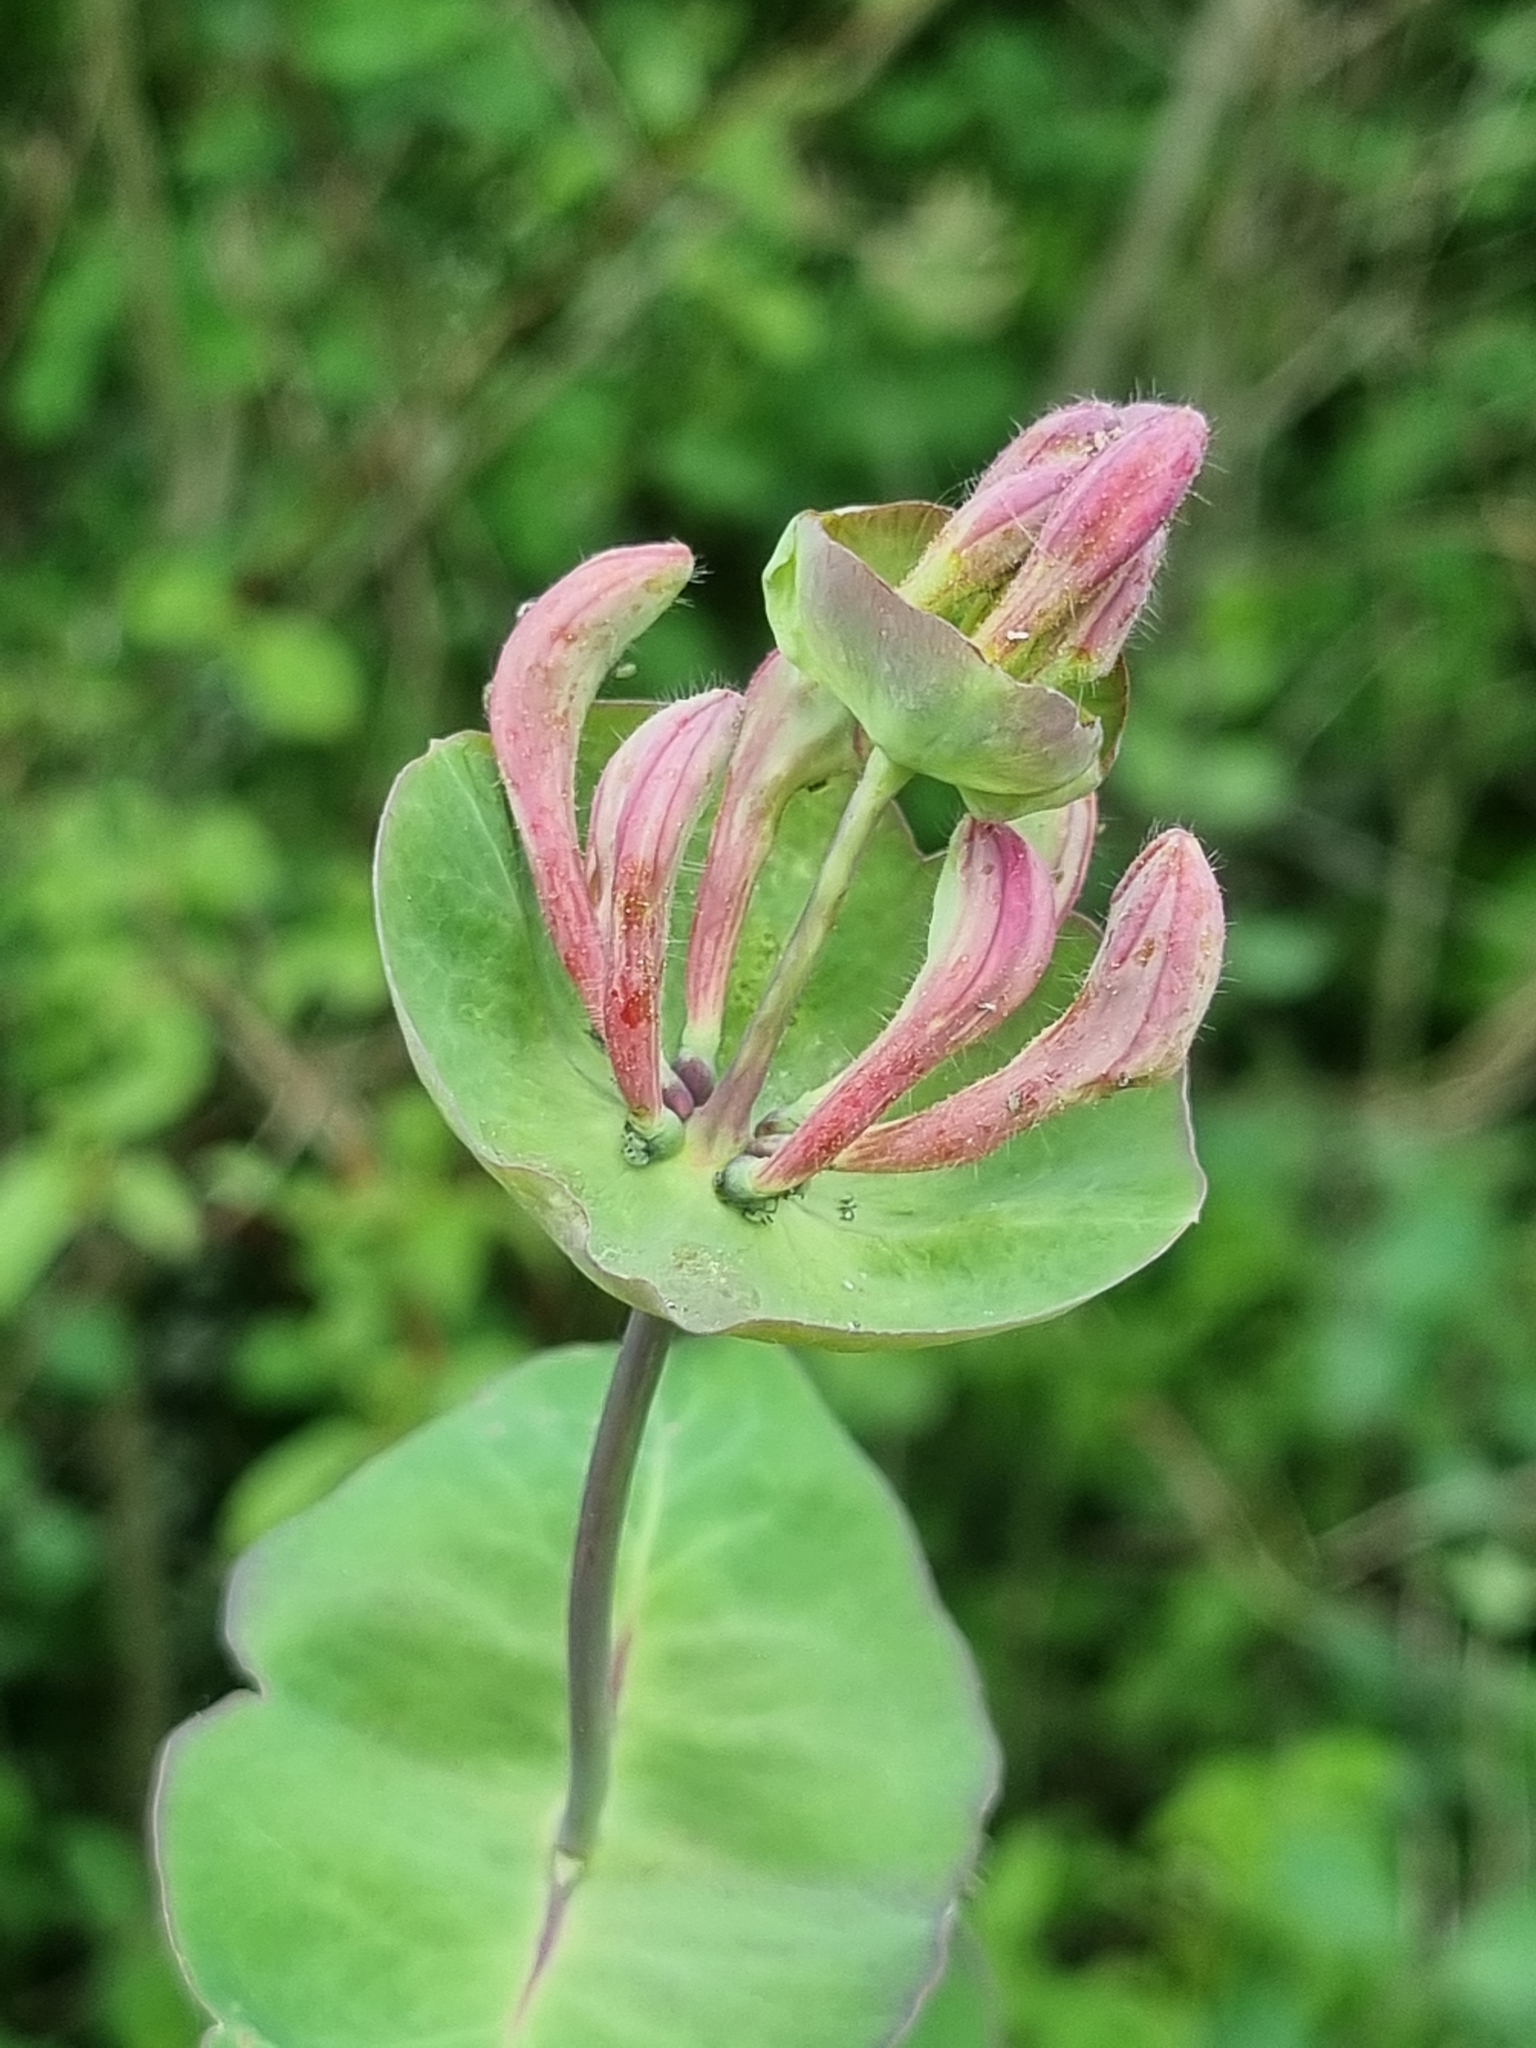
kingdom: Plantae
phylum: Tracheophyta
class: Magnoliopsida
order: Dipsacales
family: Caprifoliaceae
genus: Lonicera
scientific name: Lonicera caprifolium
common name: Perfoliate honeysuckle
